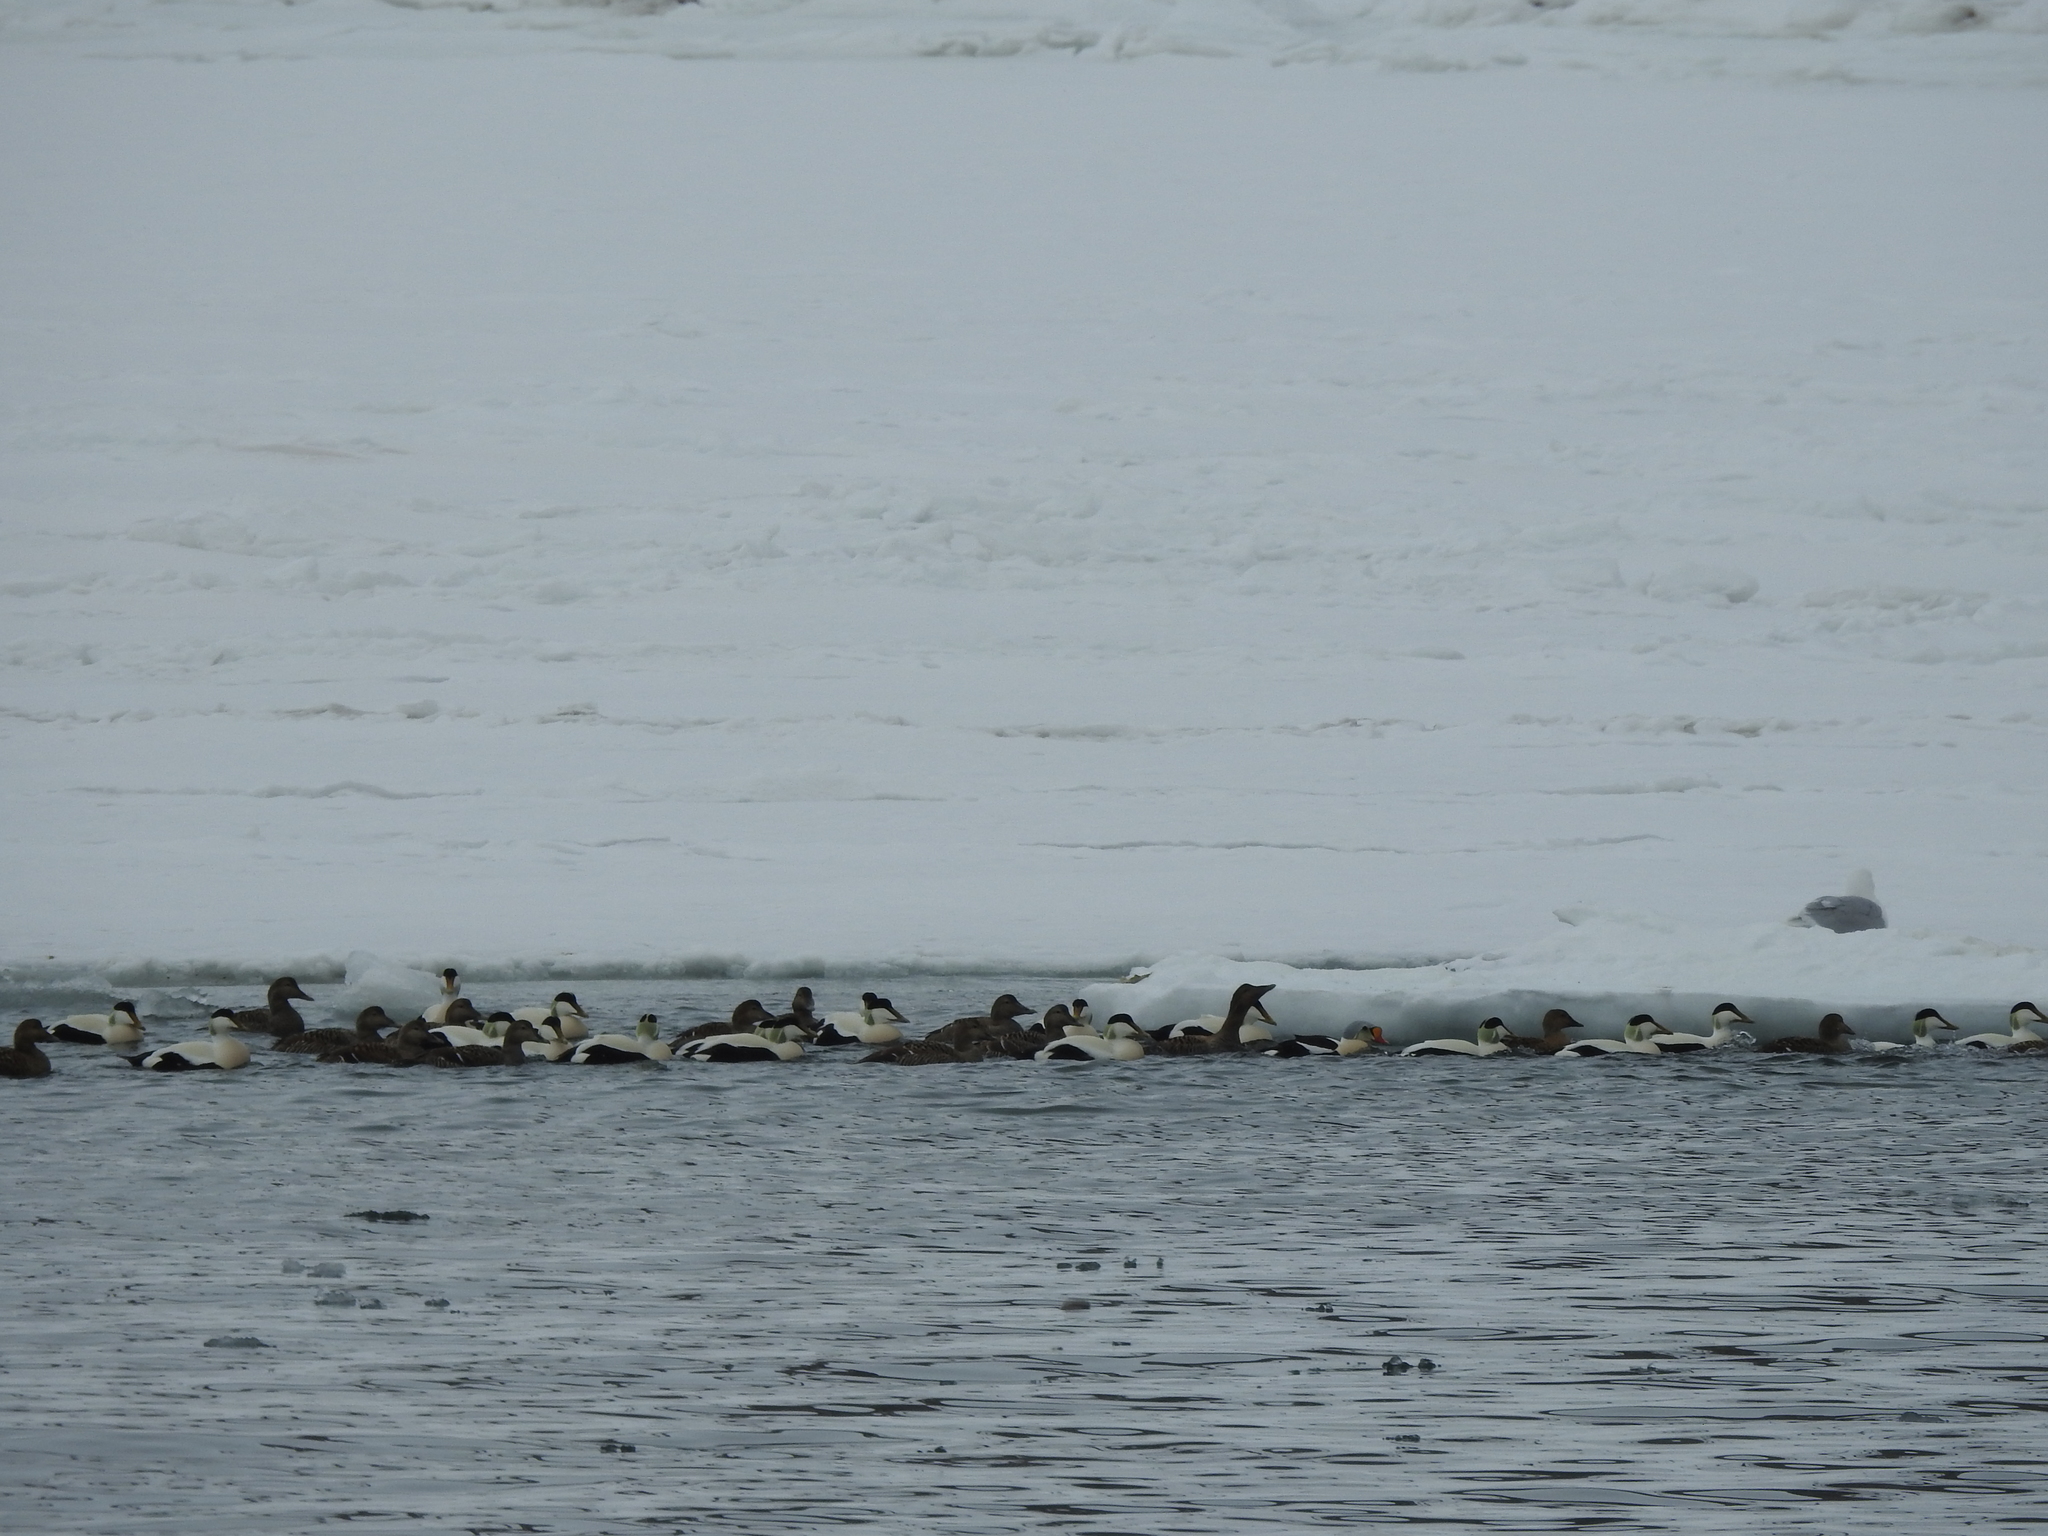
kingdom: Animalia
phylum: Chordata
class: Aves
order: Anseriformes
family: Anatidae
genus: Somateria
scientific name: Somateria mollissima
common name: Common eider
